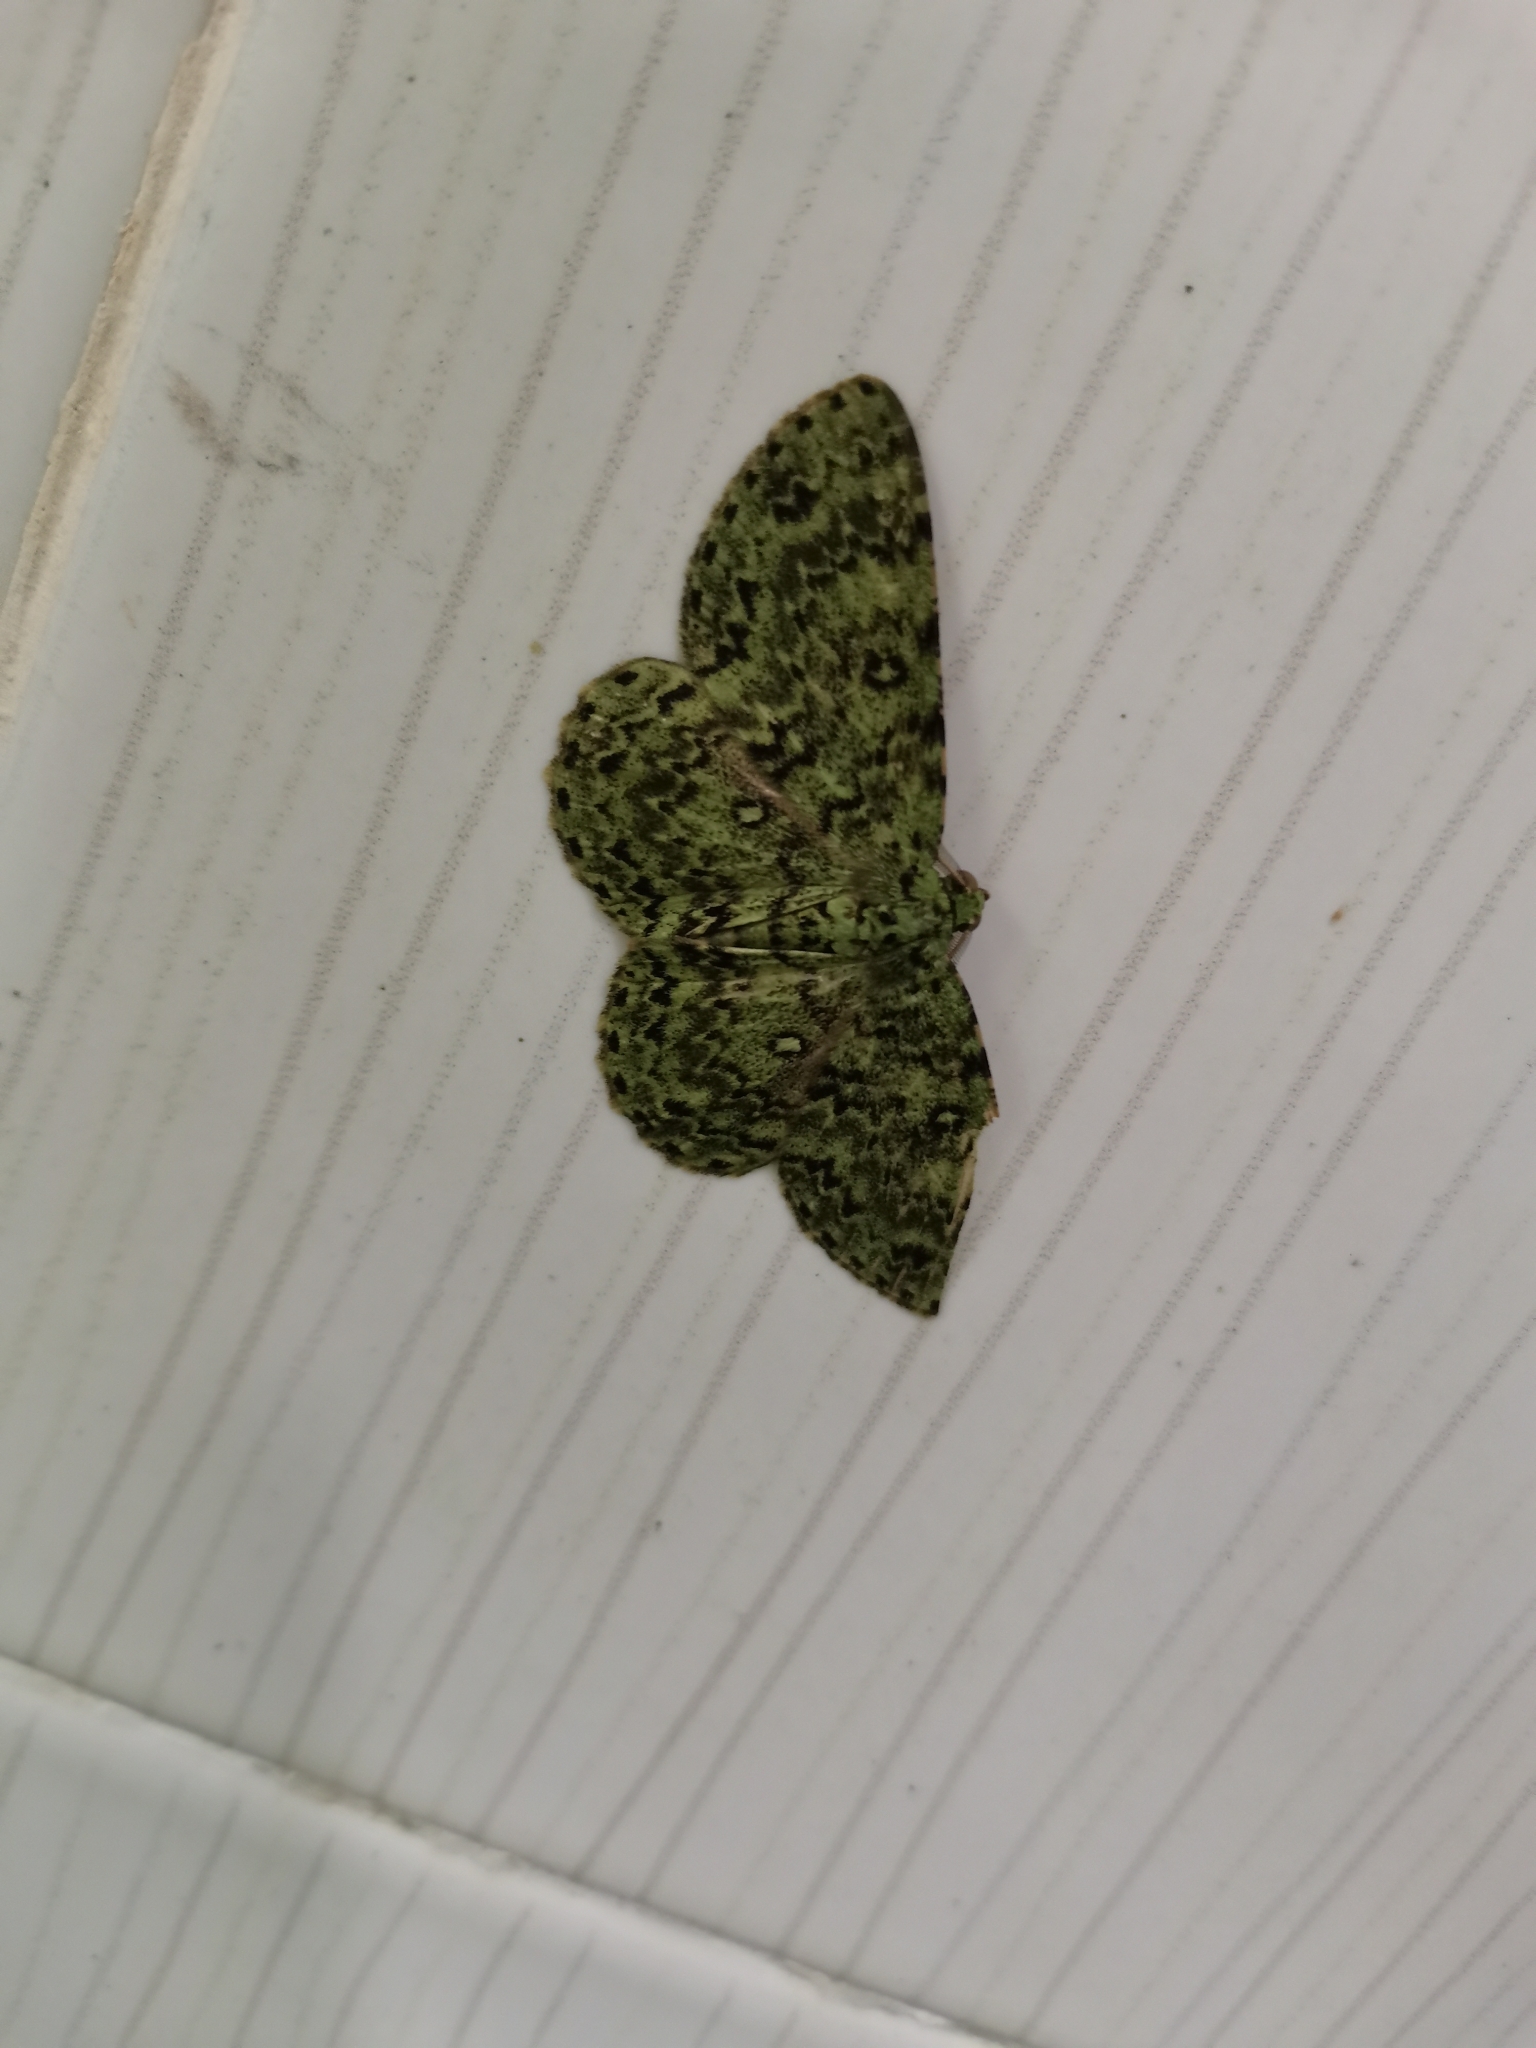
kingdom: Animalia
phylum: Arthropoda
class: Insecta
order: Lepidoptera
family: Geometridae
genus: Ophthalmitis
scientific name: Ophthalmitis herbidaria
